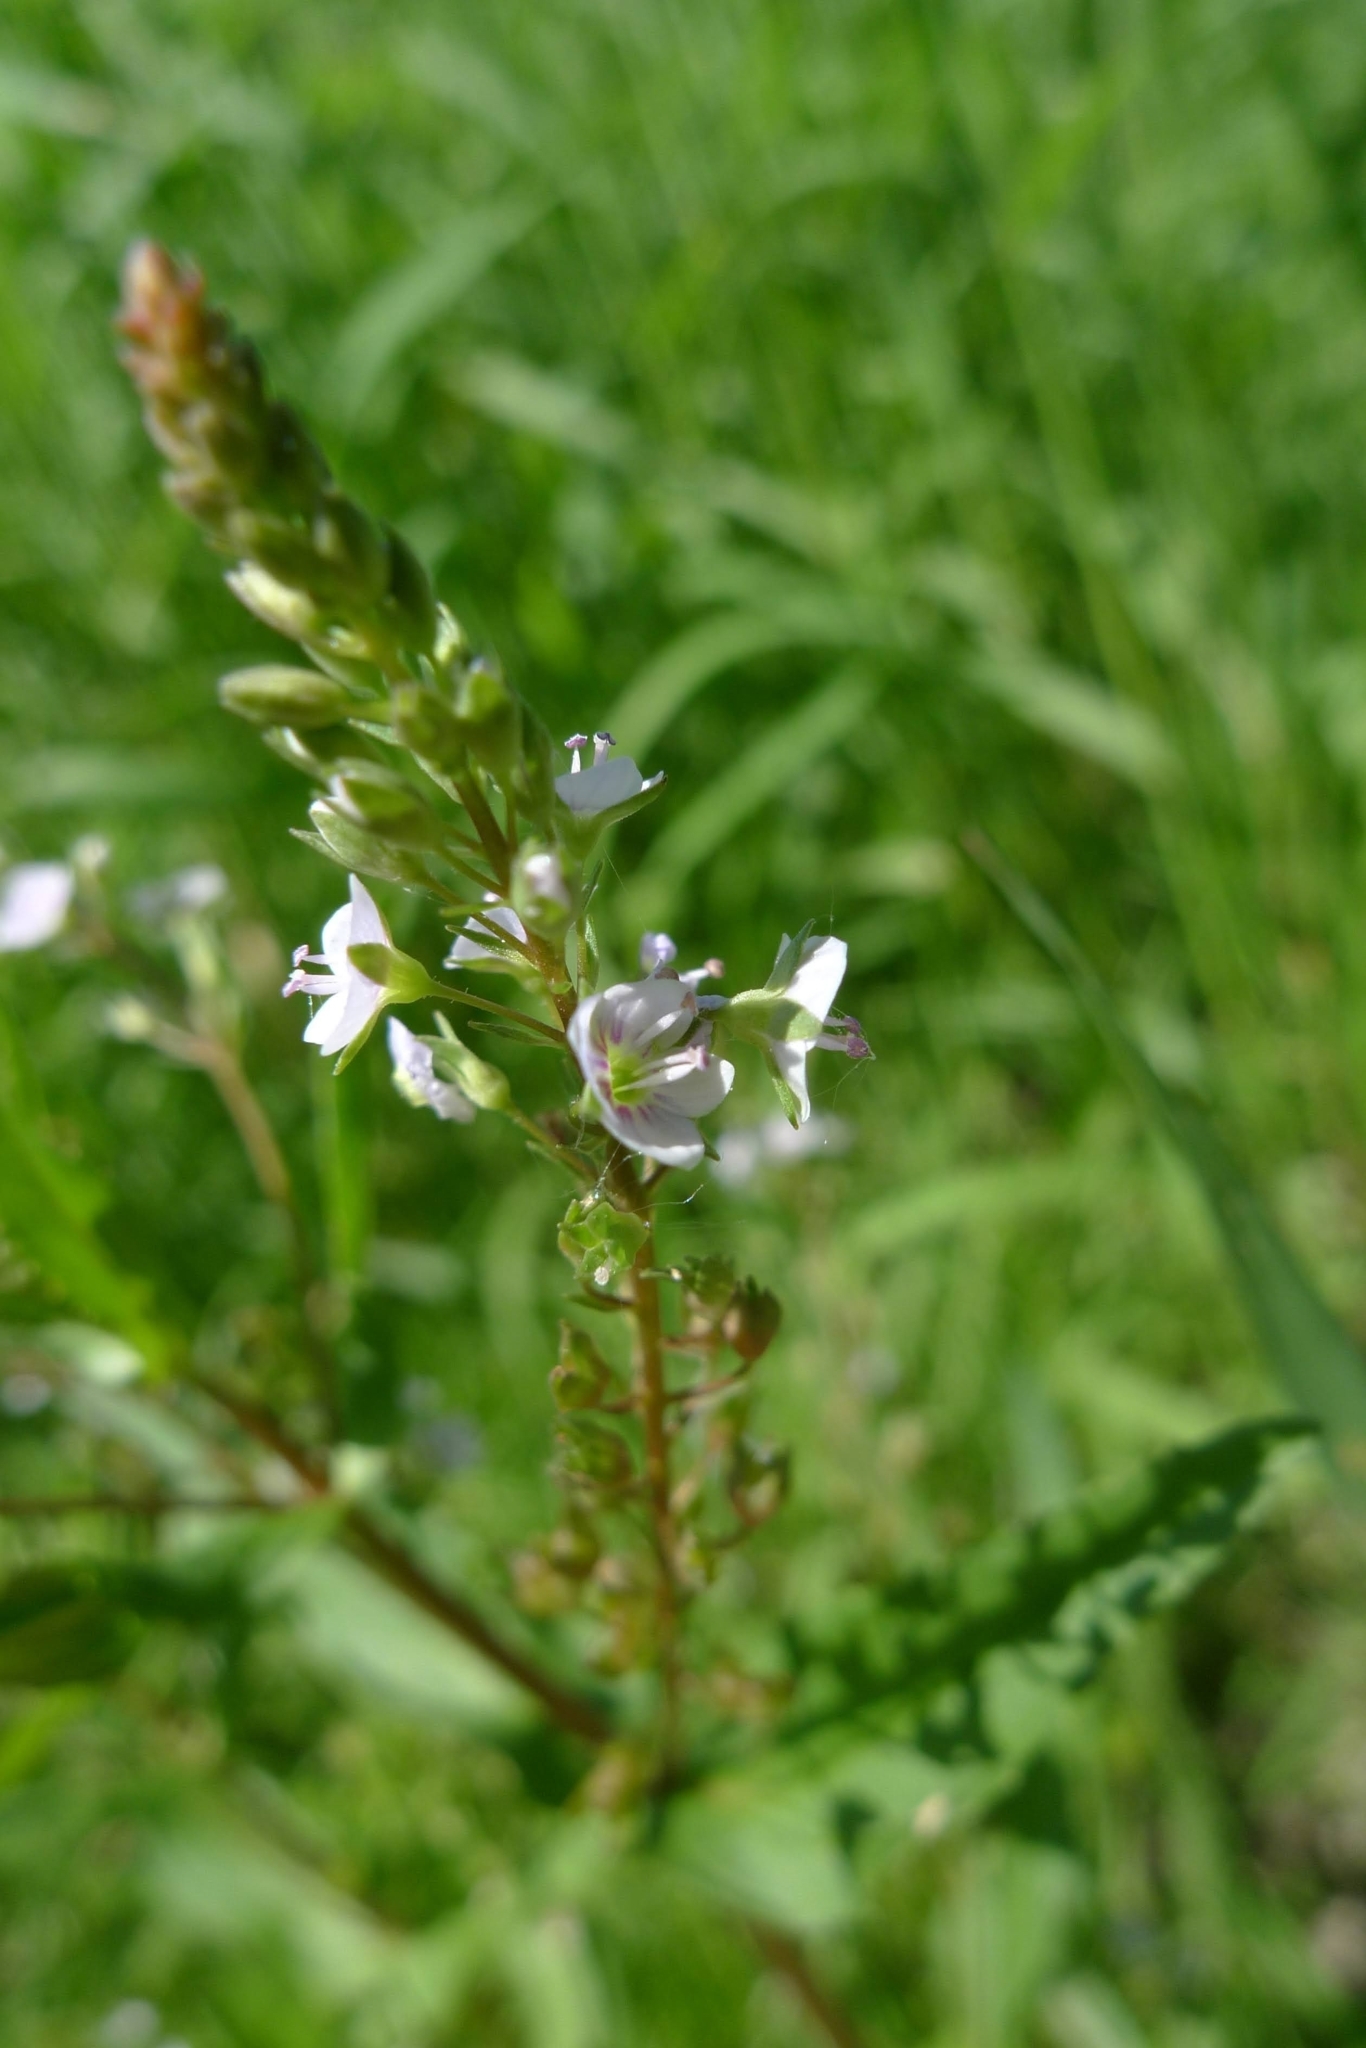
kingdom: Plantae
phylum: Tracheophyta
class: Magnoliopsida
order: Lamiales
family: Plantaginaceae
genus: Veronica
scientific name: Veronica anagallis-aquatica
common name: Water speedwell
